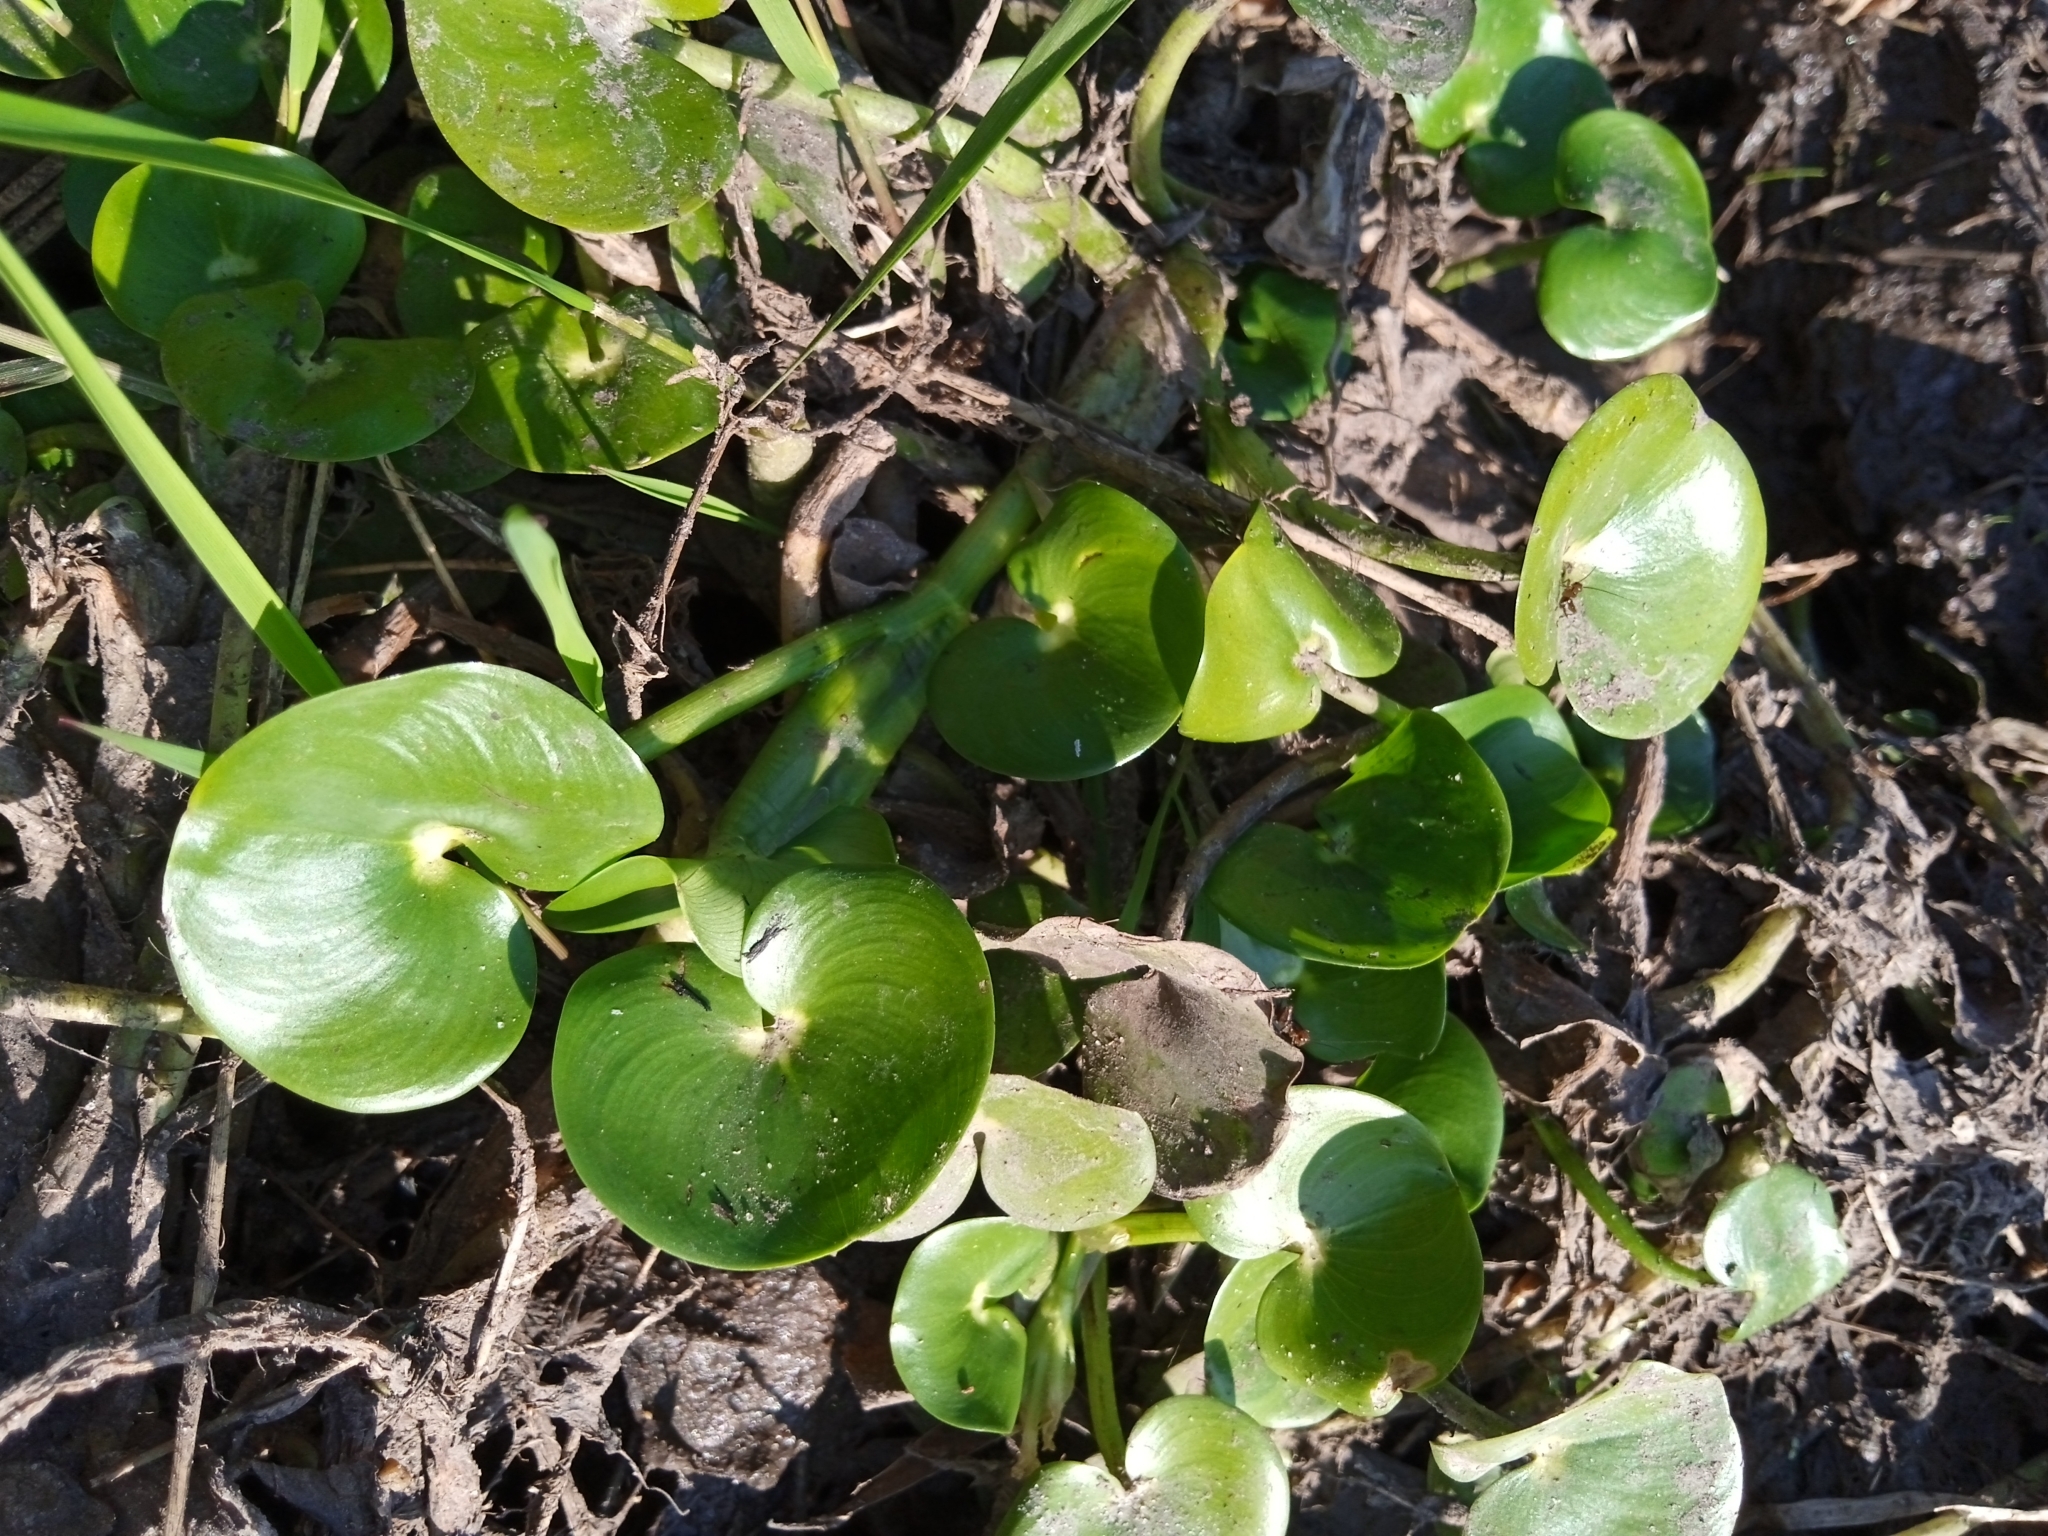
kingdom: Plantae
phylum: Tracheophyta
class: Liliopsida
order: Commelinales
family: Pontederiaceae
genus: Heteranthera
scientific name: Heteranthera reniformis
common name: Kidneyleaf mudplantain
